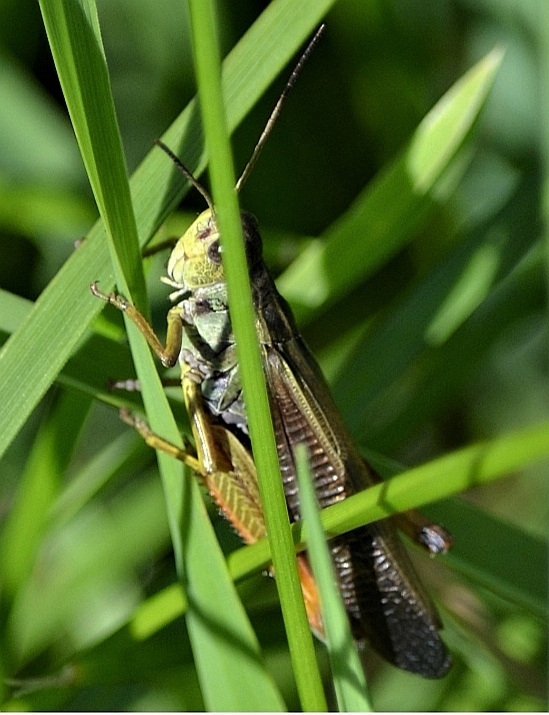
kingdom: Animalia
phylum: Arthropoda
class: Insecta
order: Orthoptera
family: Acrididae
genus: Stauroderus
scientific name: Stauroderus scalaris
